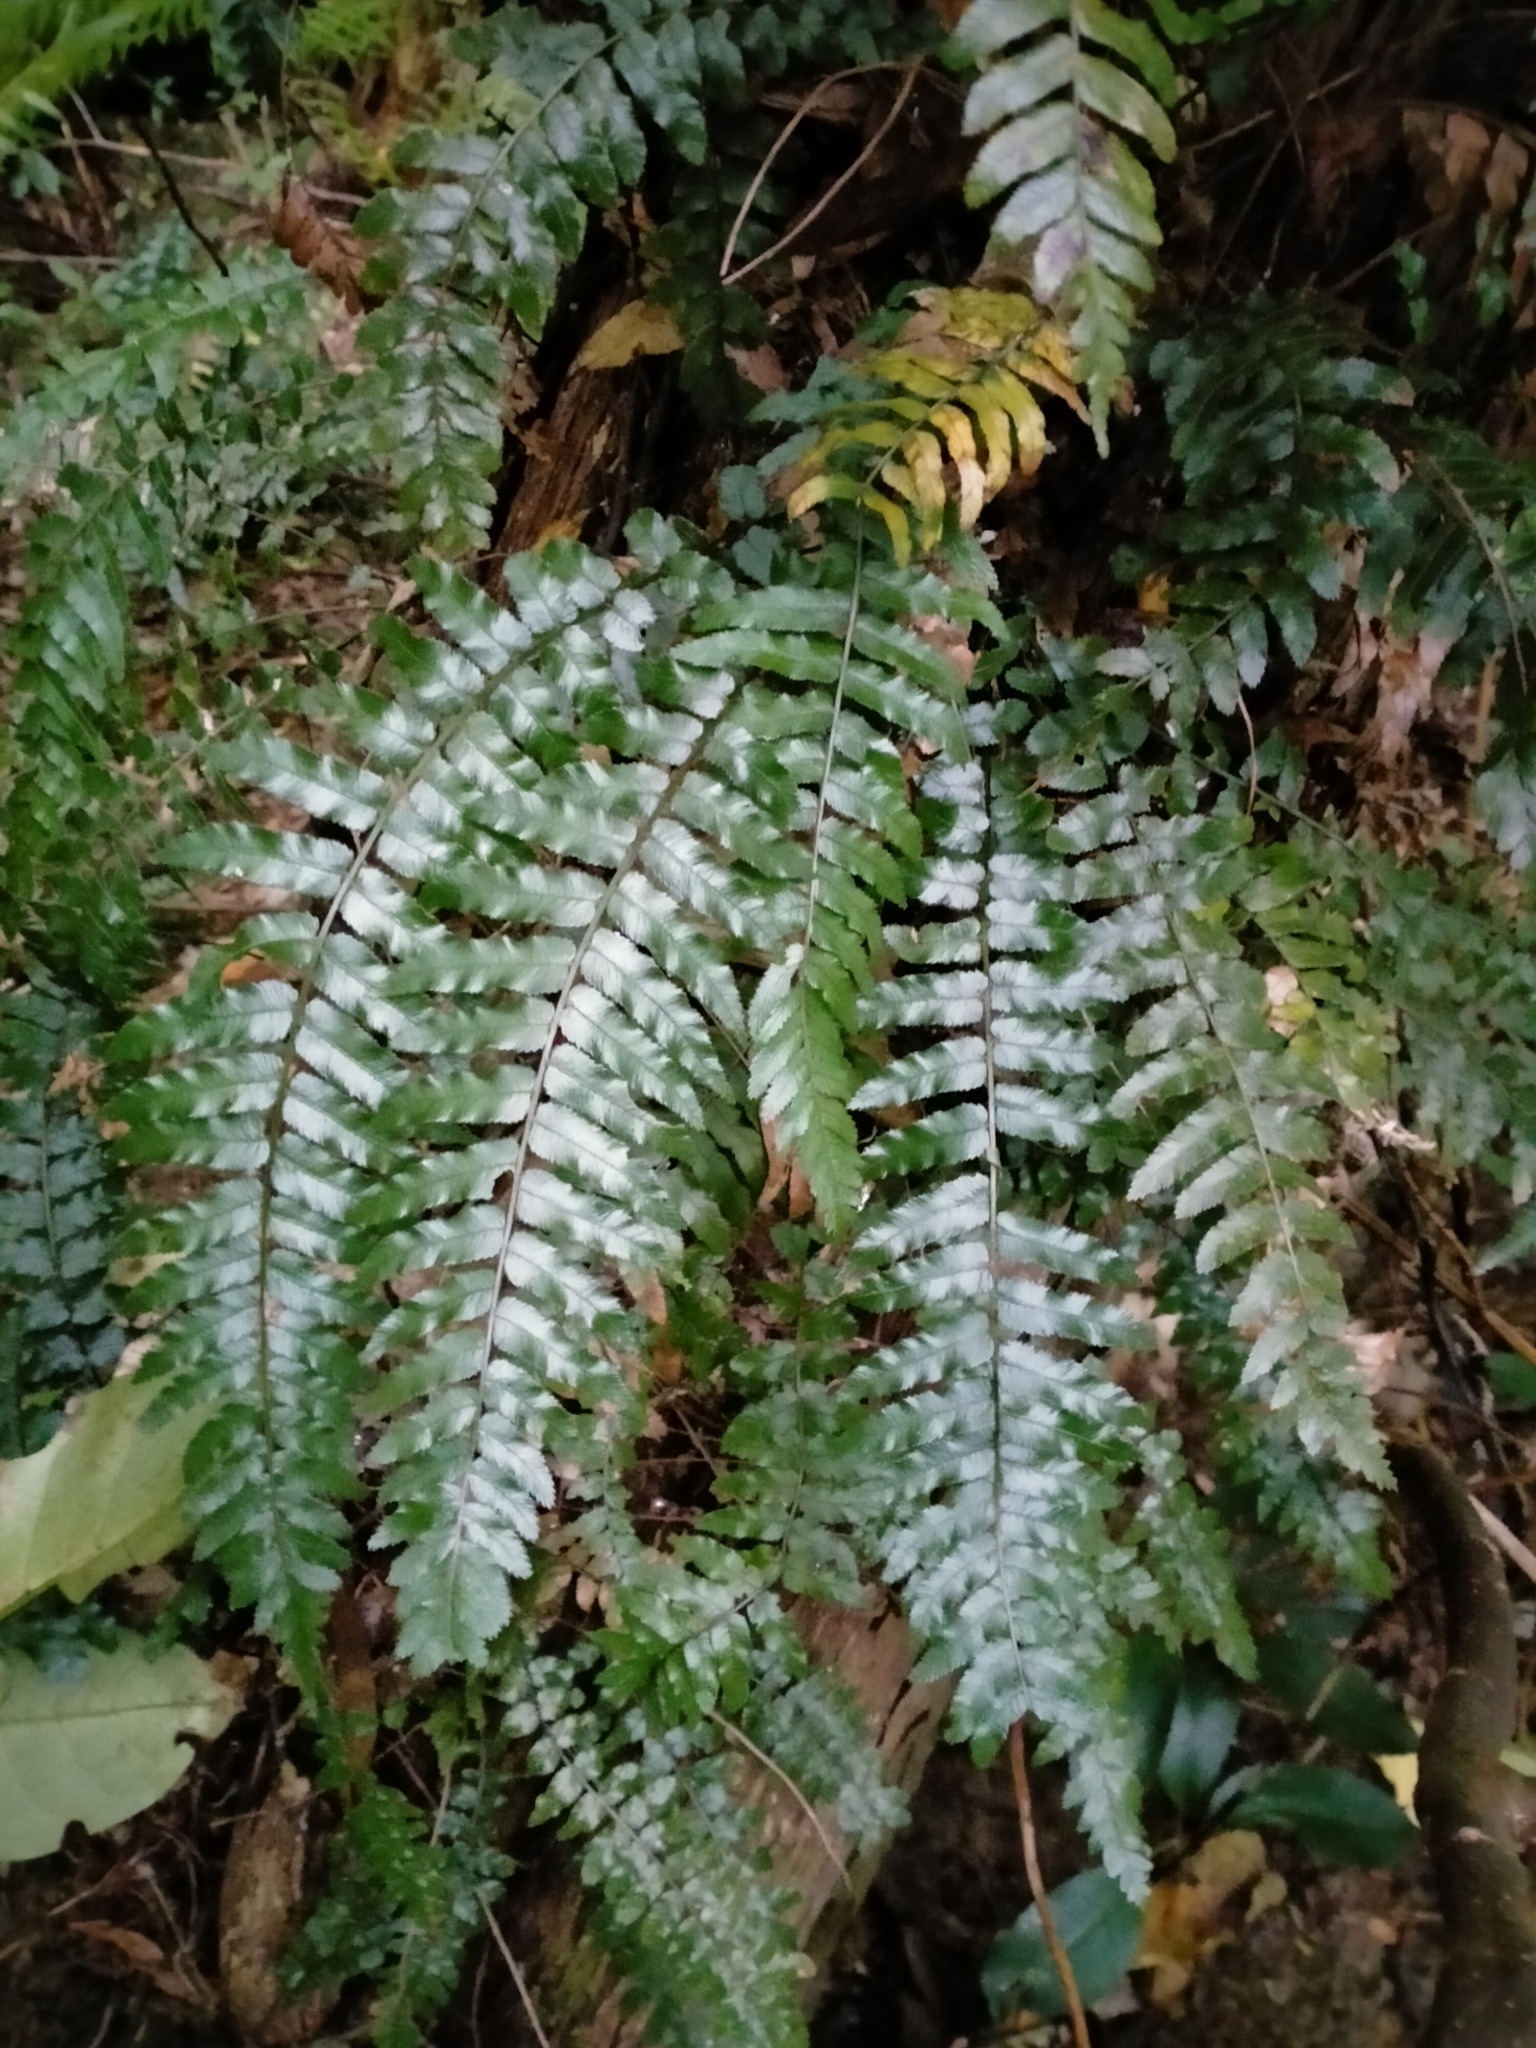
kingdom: Plantae
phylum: Tracheophyta
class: Polypodiopsida
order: Polypodiales
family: Blechnaceae
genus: Icarus
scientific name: Icarus filiformis
